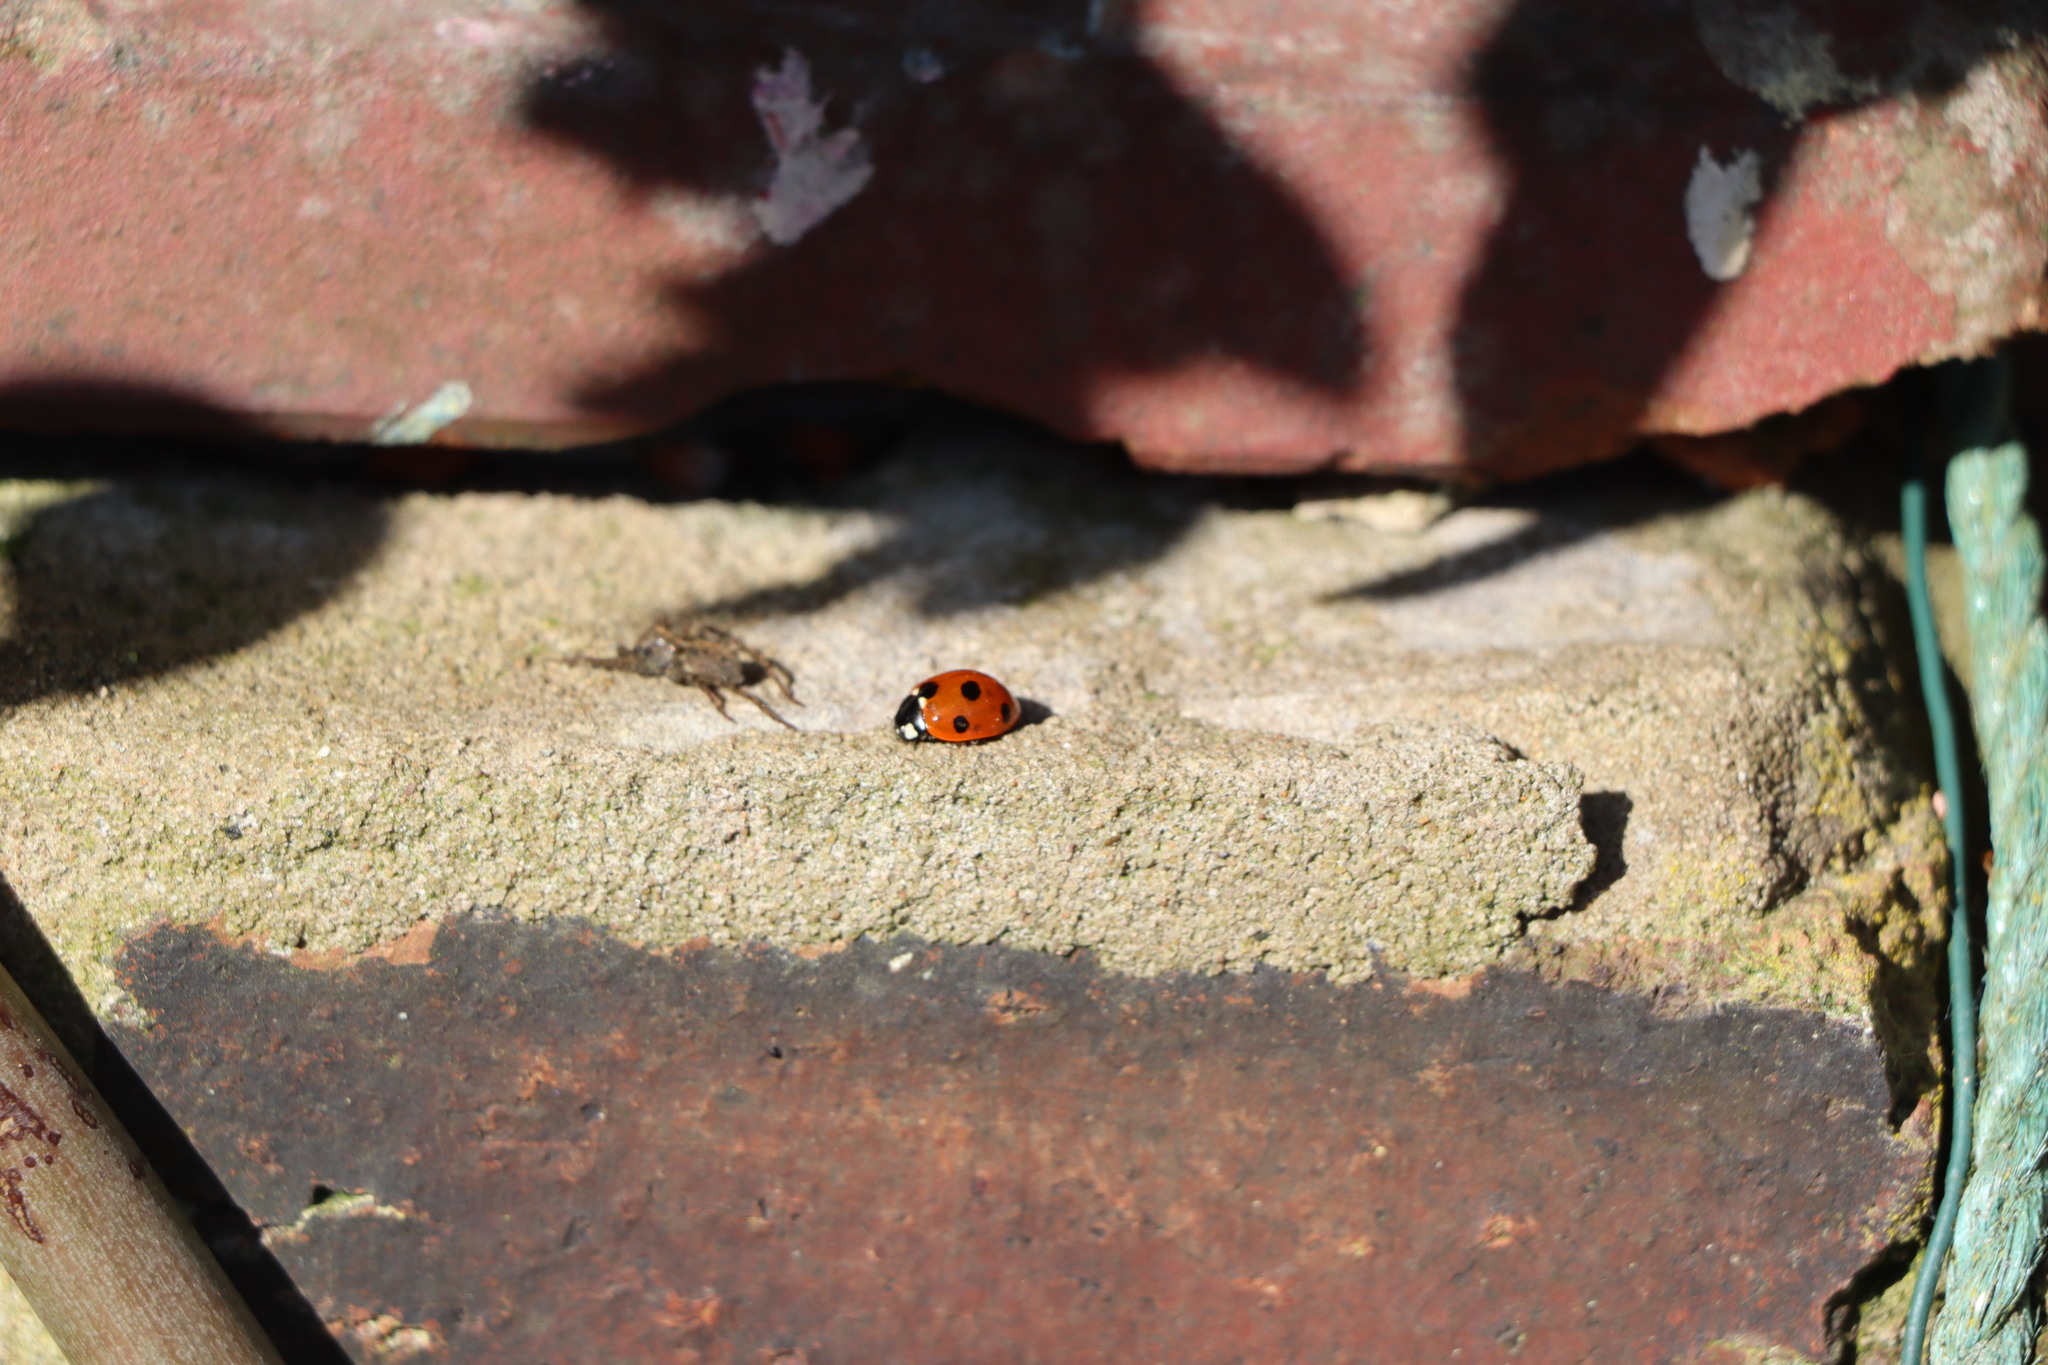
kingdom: Animalia
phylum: Arthropoda
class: Insecta
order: Coleoptera
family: Coccinellidae
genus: Coccinella
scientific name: Coccinella septempunctata
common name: Sevenspotted lady beetle
